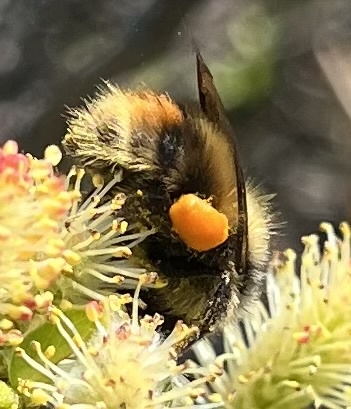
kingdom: Animalia
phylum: Arthropoda
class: Insecta
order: Hymenoptera
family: Apidae
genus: Bombus
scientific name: Bombus mixtus
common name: Fuzzy-horned bumble bee
